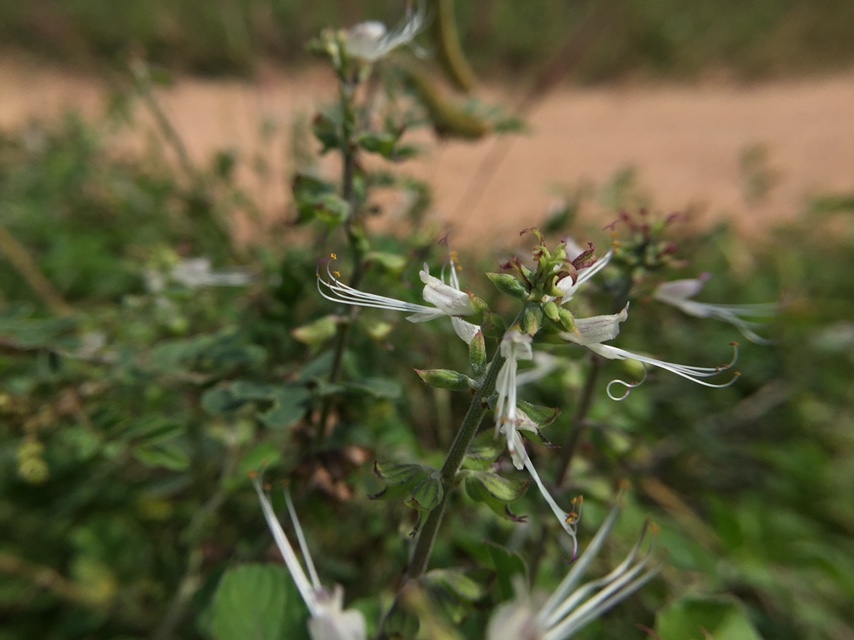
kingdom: Plantae
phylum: Tracheophyta
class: Magnoliopsida
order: Lamiales
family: Lamiaceae
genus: Ocimum
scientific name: Ocimum filamentosum
